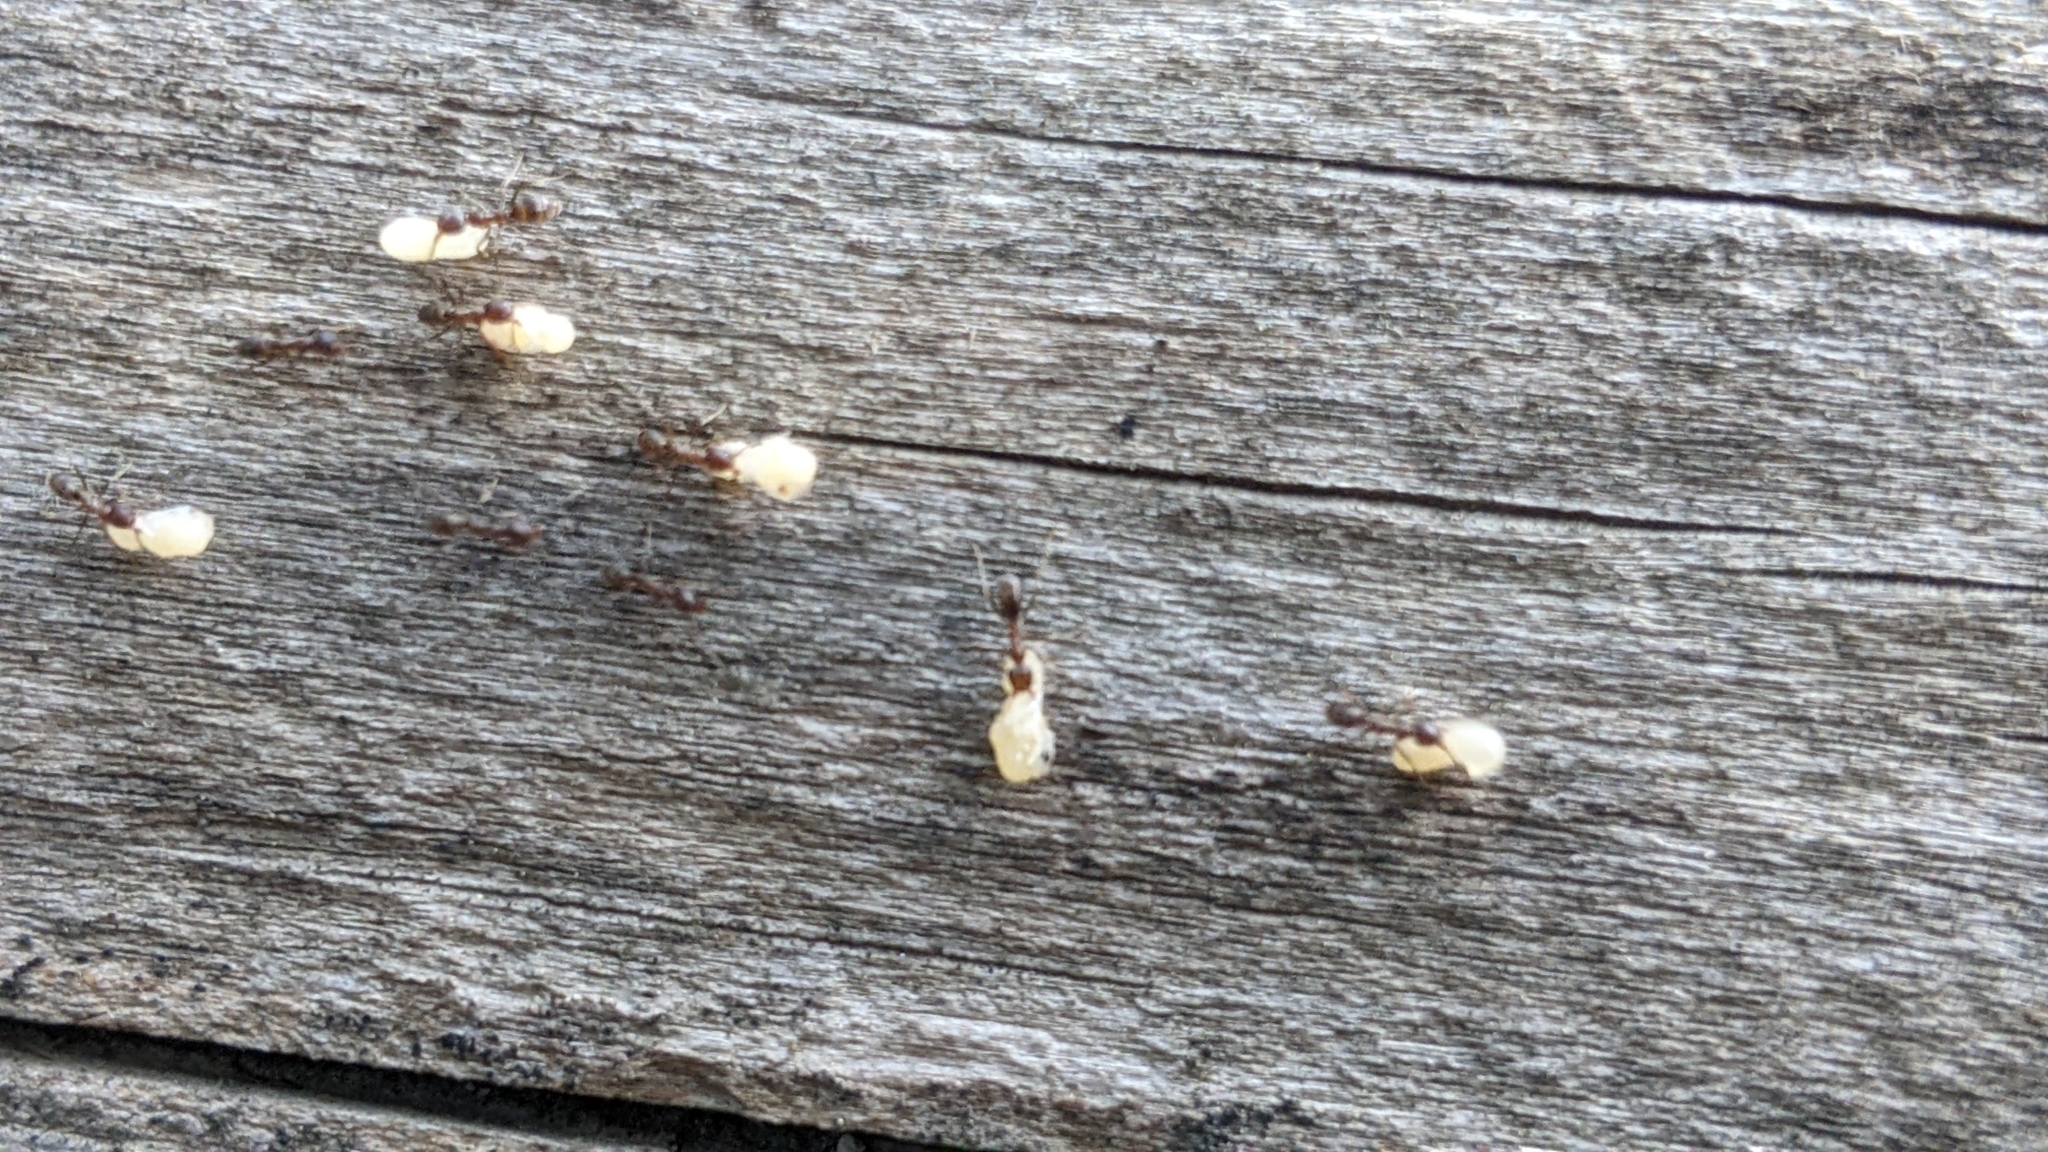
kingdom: Animalia
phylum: Arthropoda
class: Insecta
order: Hymenoptera
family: Formicidae
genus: Linepithema
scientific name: Linepithema humile
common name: Argentine ant
